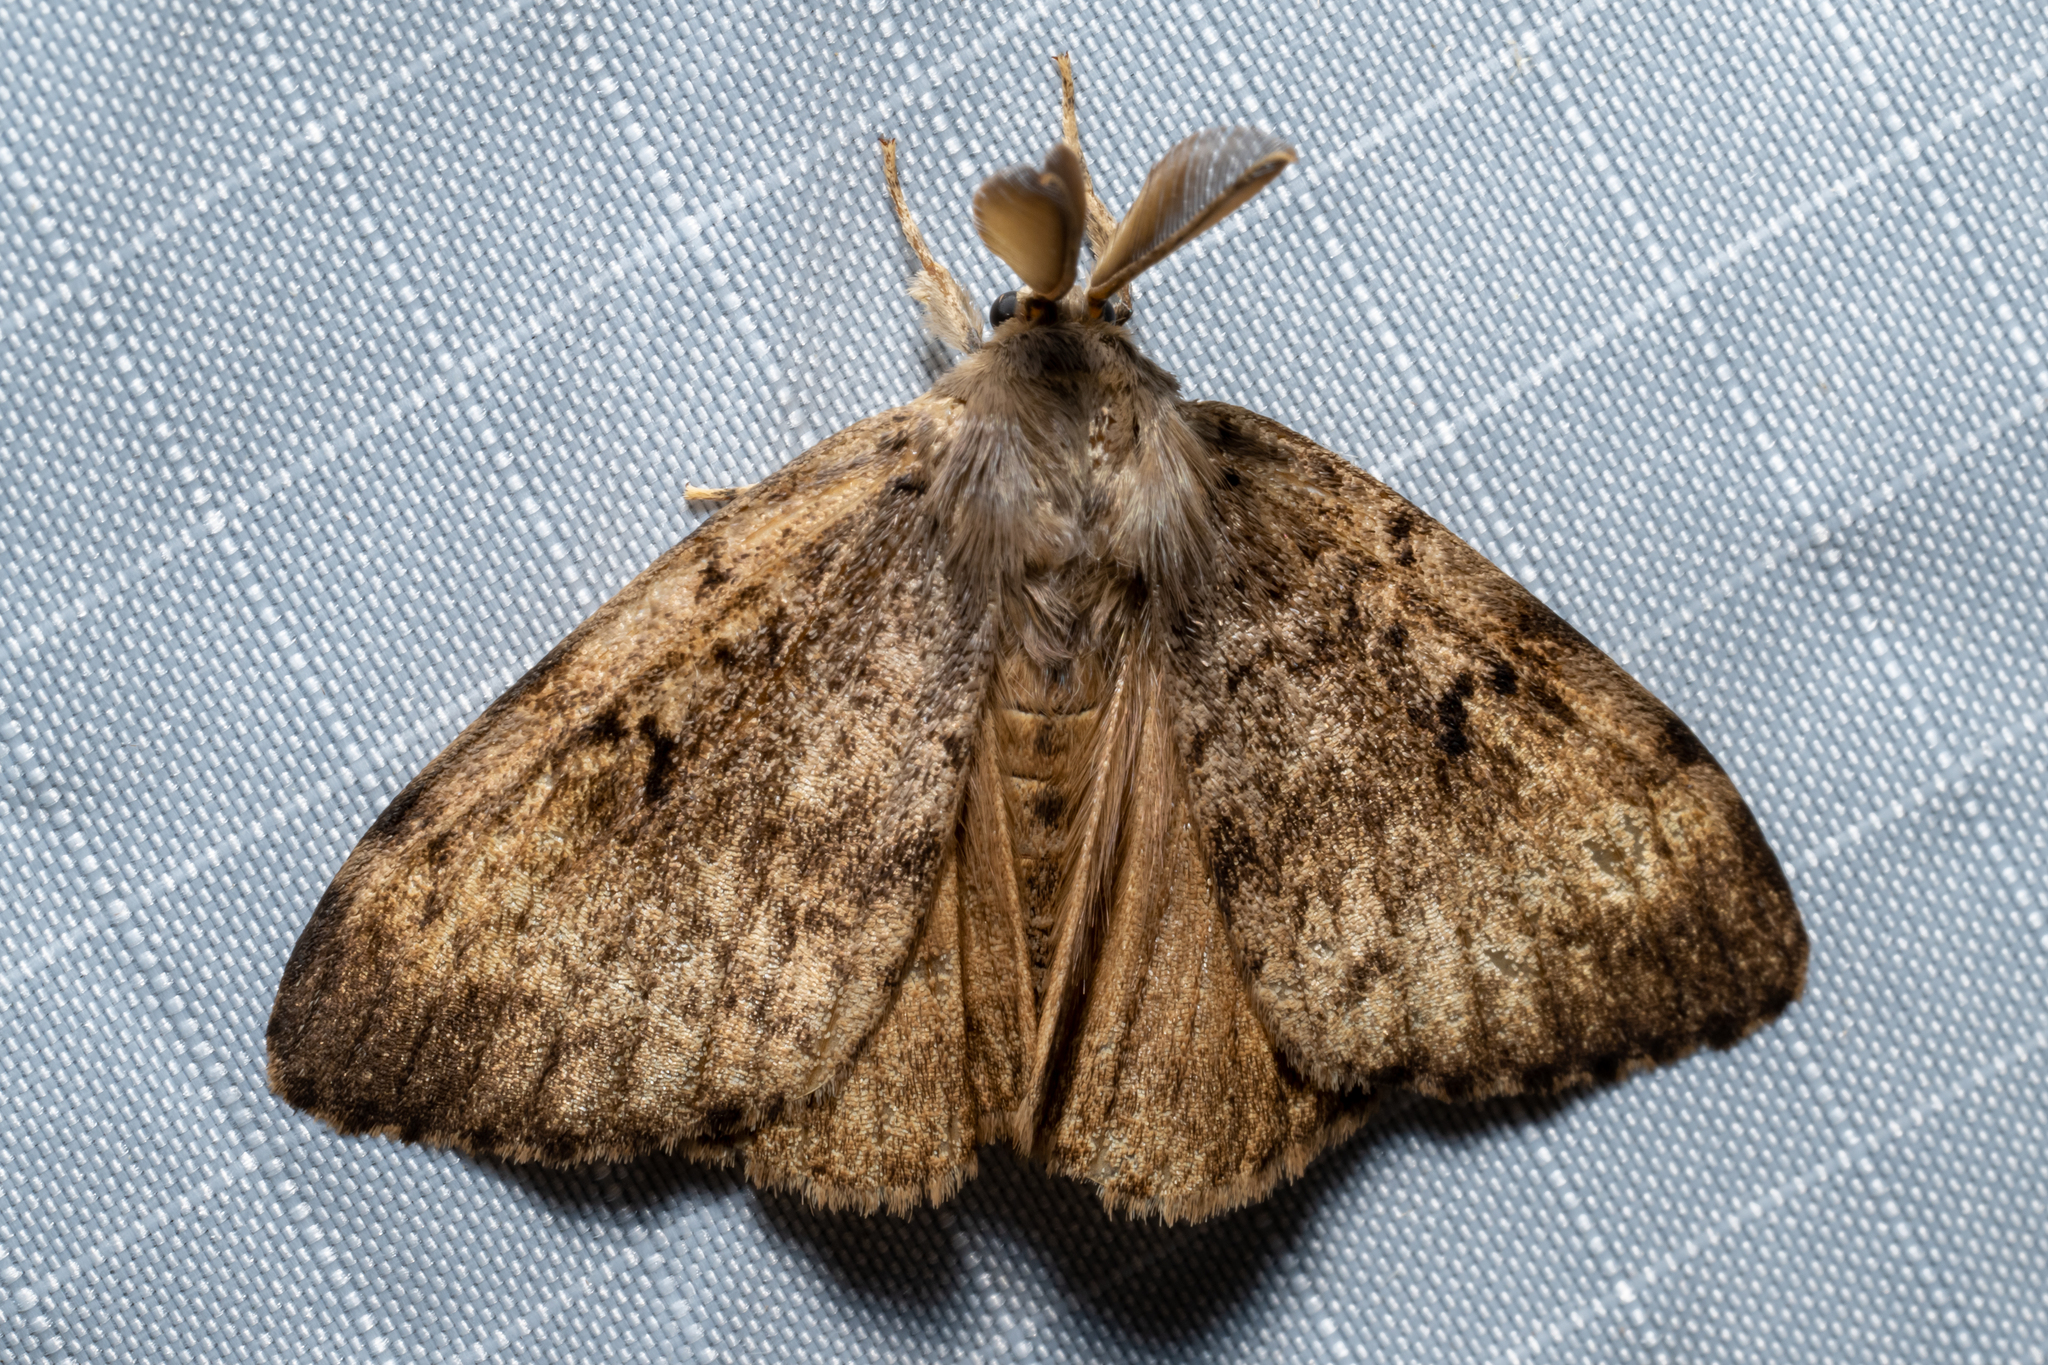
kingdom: Animalia
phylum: Arthropoda
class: Insecta
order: Lepidoptera
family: Erebidae
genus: Lymantria
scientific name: Lymantria dispar
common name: Gypsy moth
